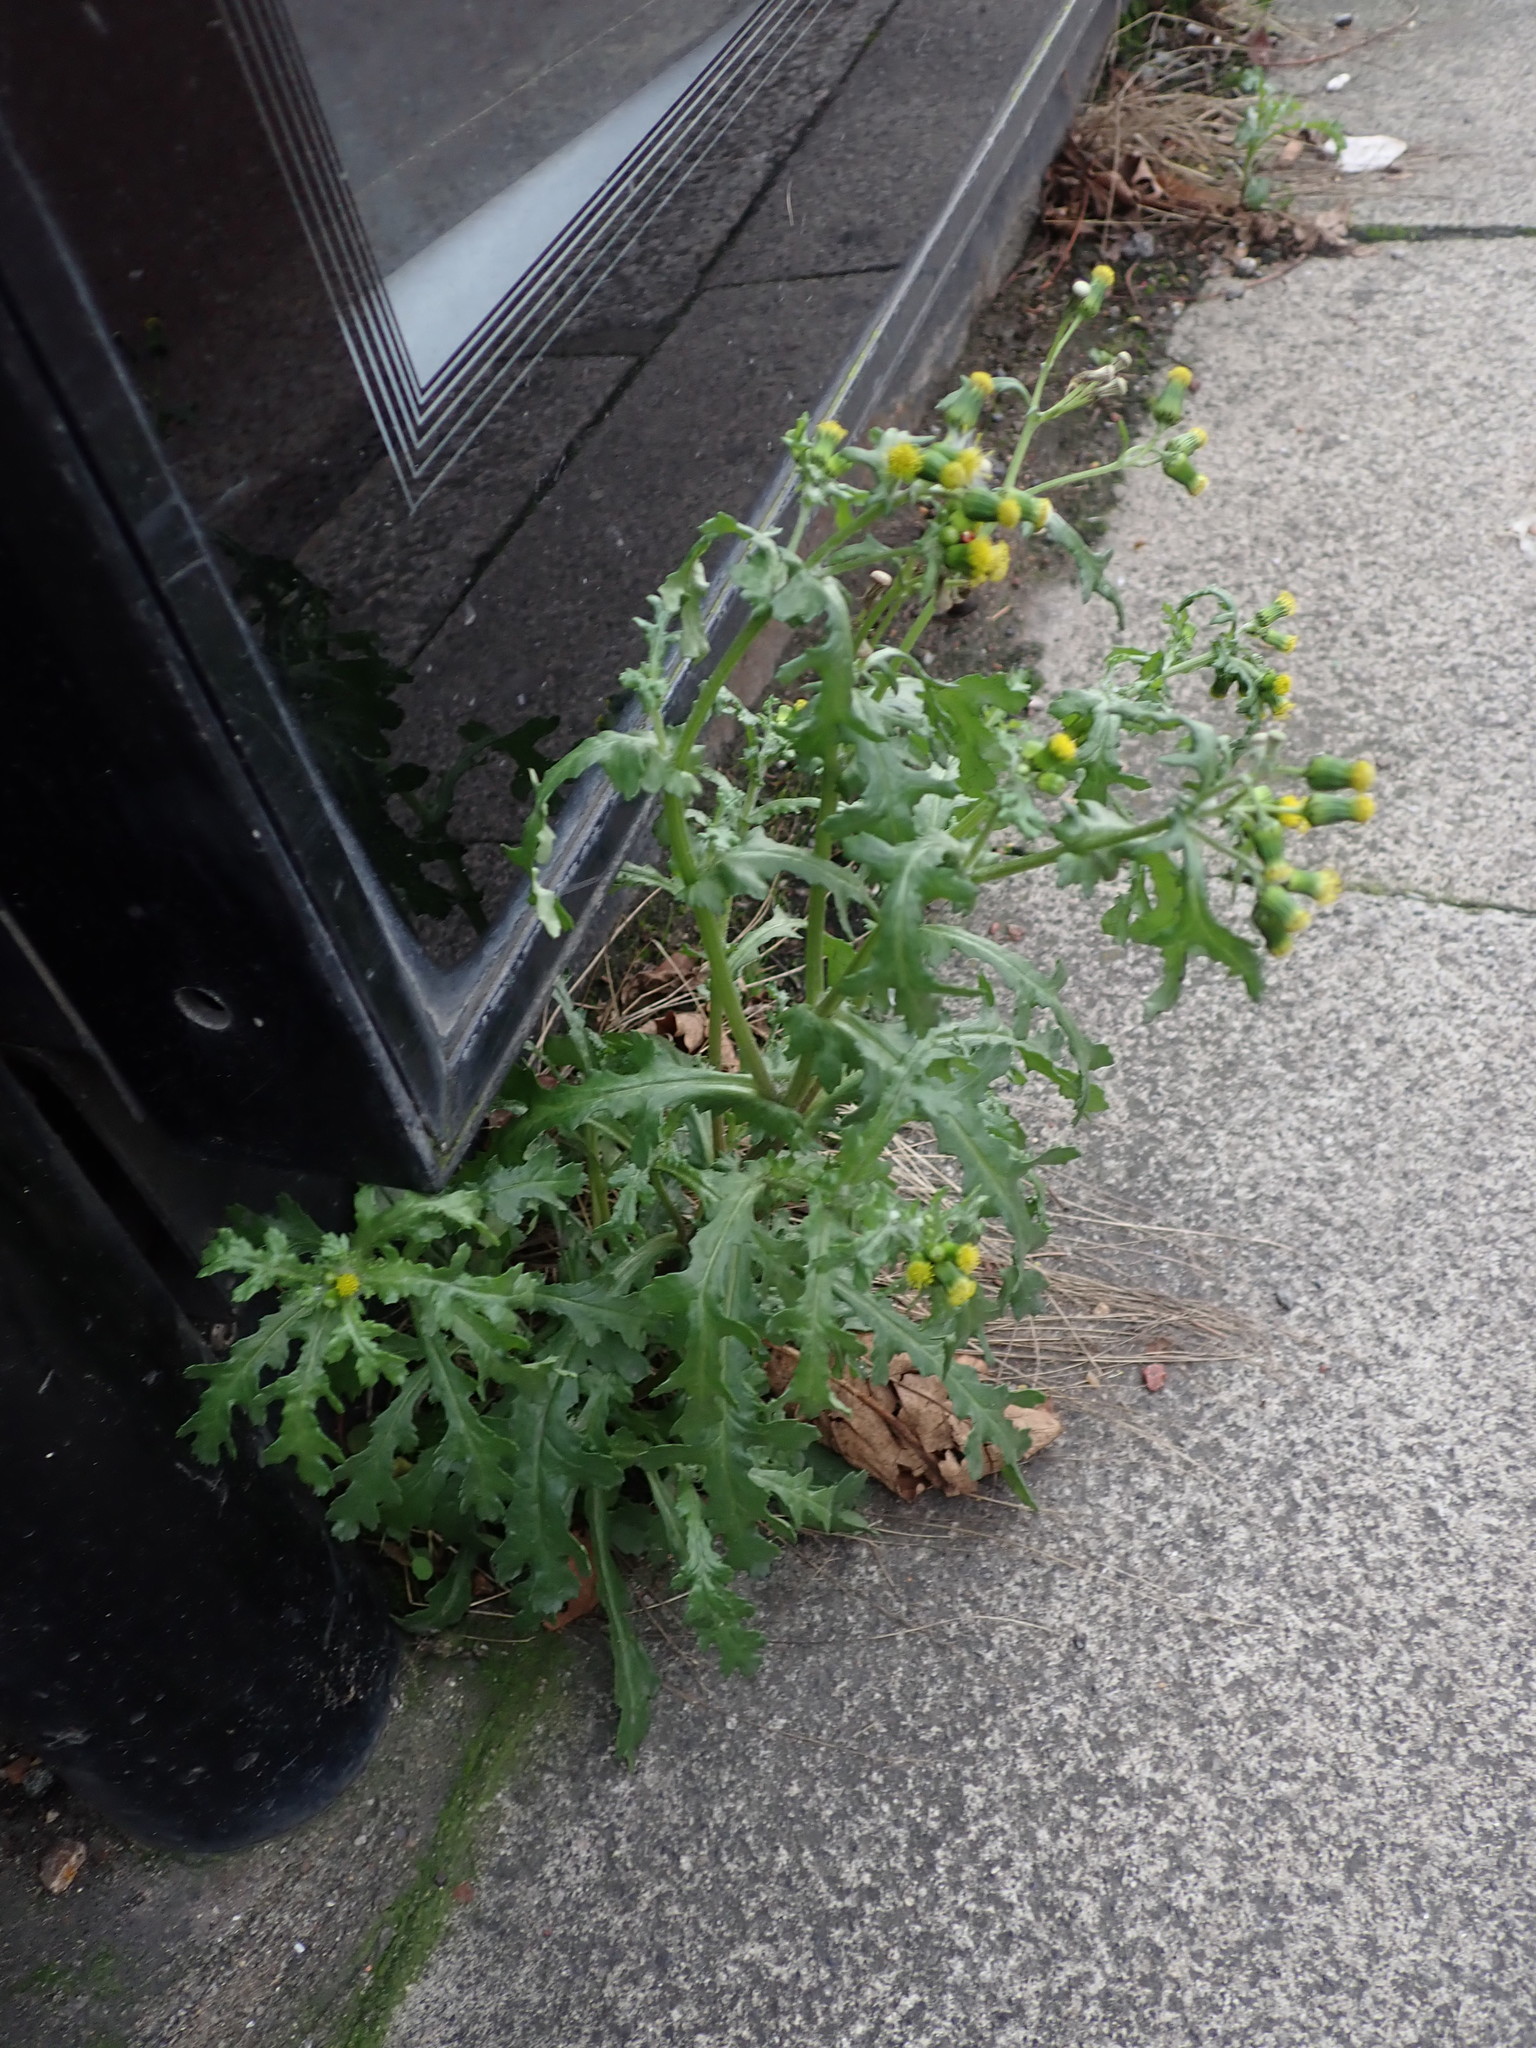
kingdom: Plantae
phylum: Tracheophyta
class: Magnoliopsida
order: Asterales
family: Asteraceae
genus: Senecio
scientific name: Senecio vulgaris
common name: Old-man-in-the-spring
